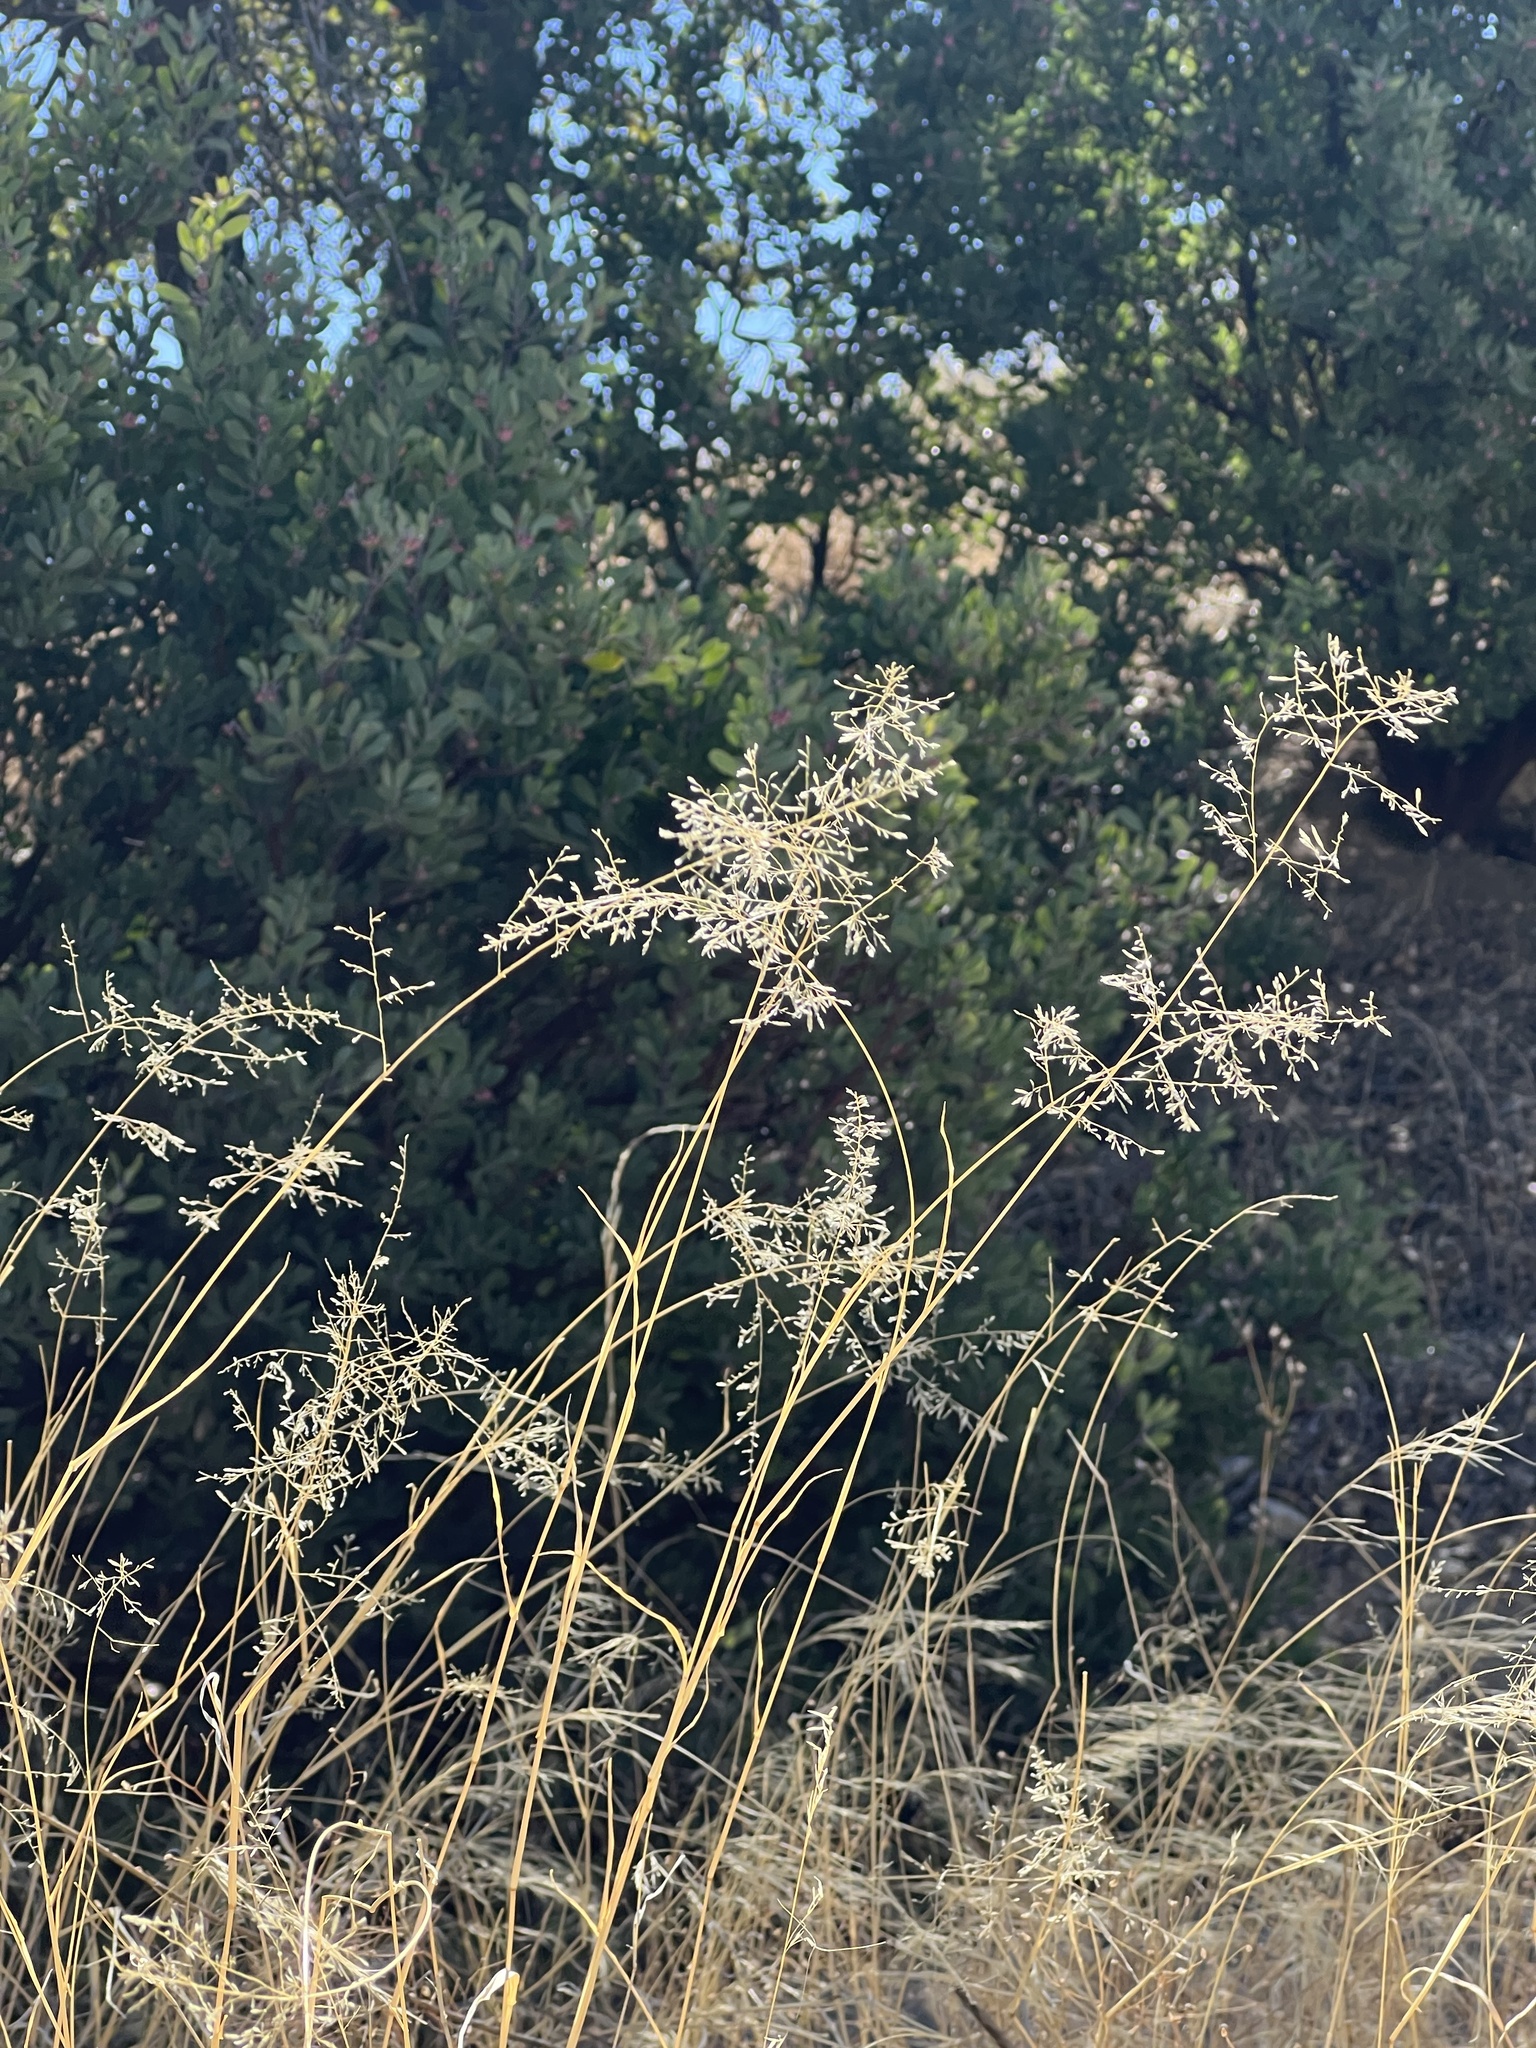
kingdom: Plantae
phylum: Tracheophyta
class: Liliopsida
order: Poales
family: Poaceae
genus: Eragrostis
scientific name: Eragrostis lehmanniana
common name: Lehmann lovegrass
